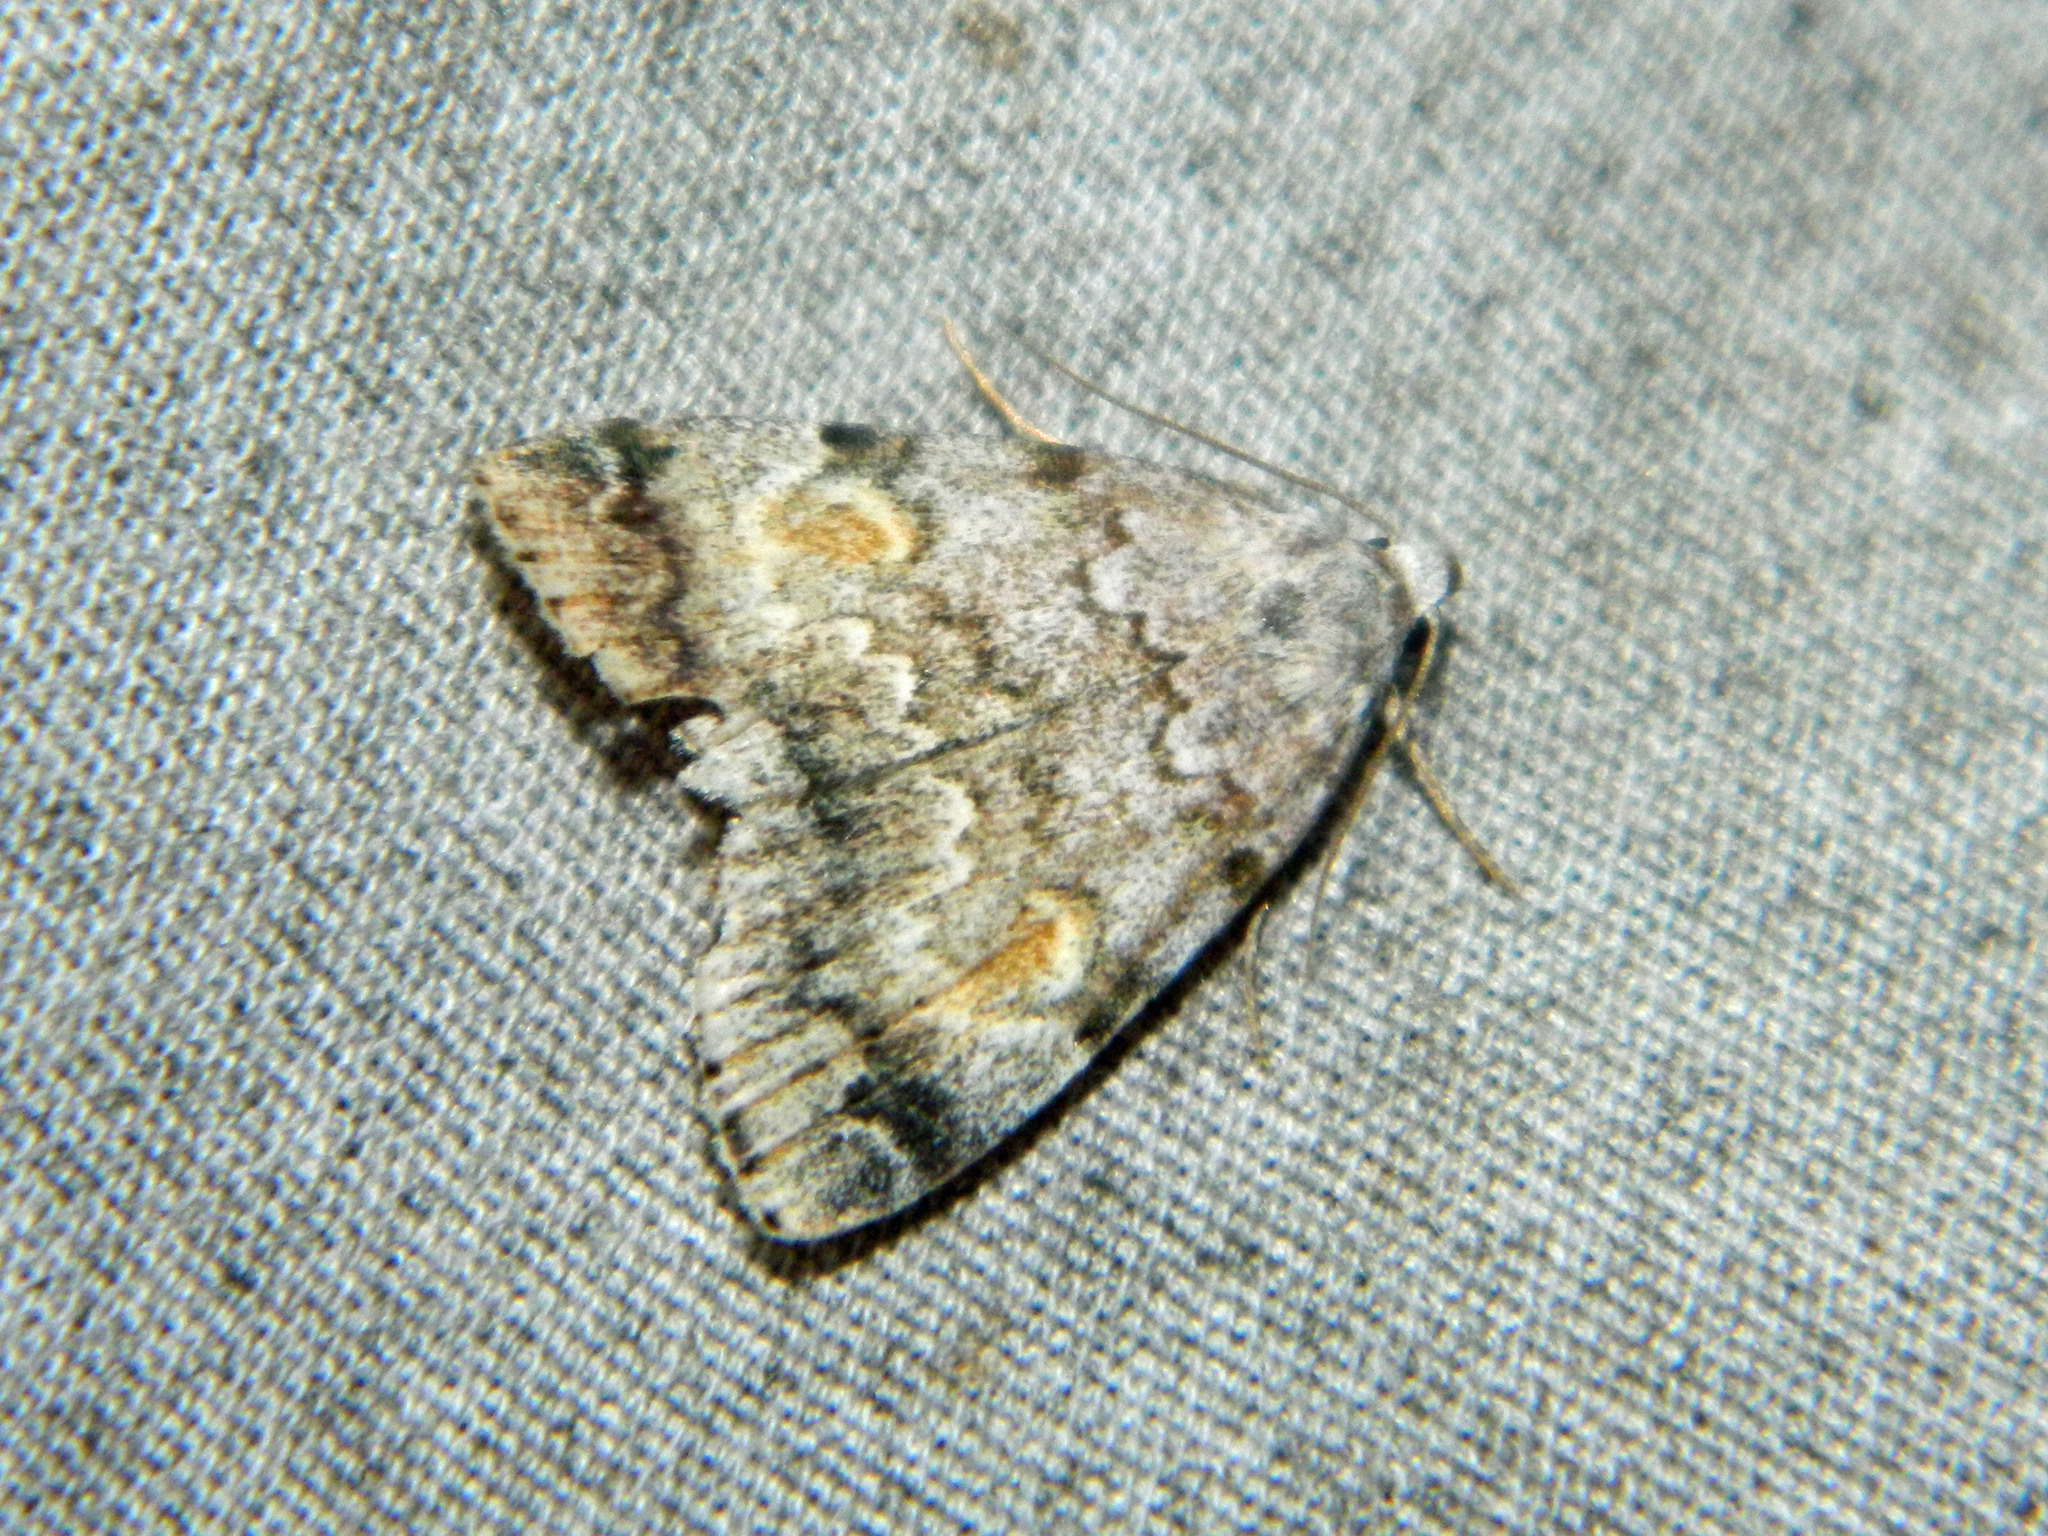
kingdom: Animalia
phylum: Arthropoda
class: Insecta
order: Lepidoptera
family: Erebidae
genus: Idia
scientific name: Idia americalis
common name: American idia moth
